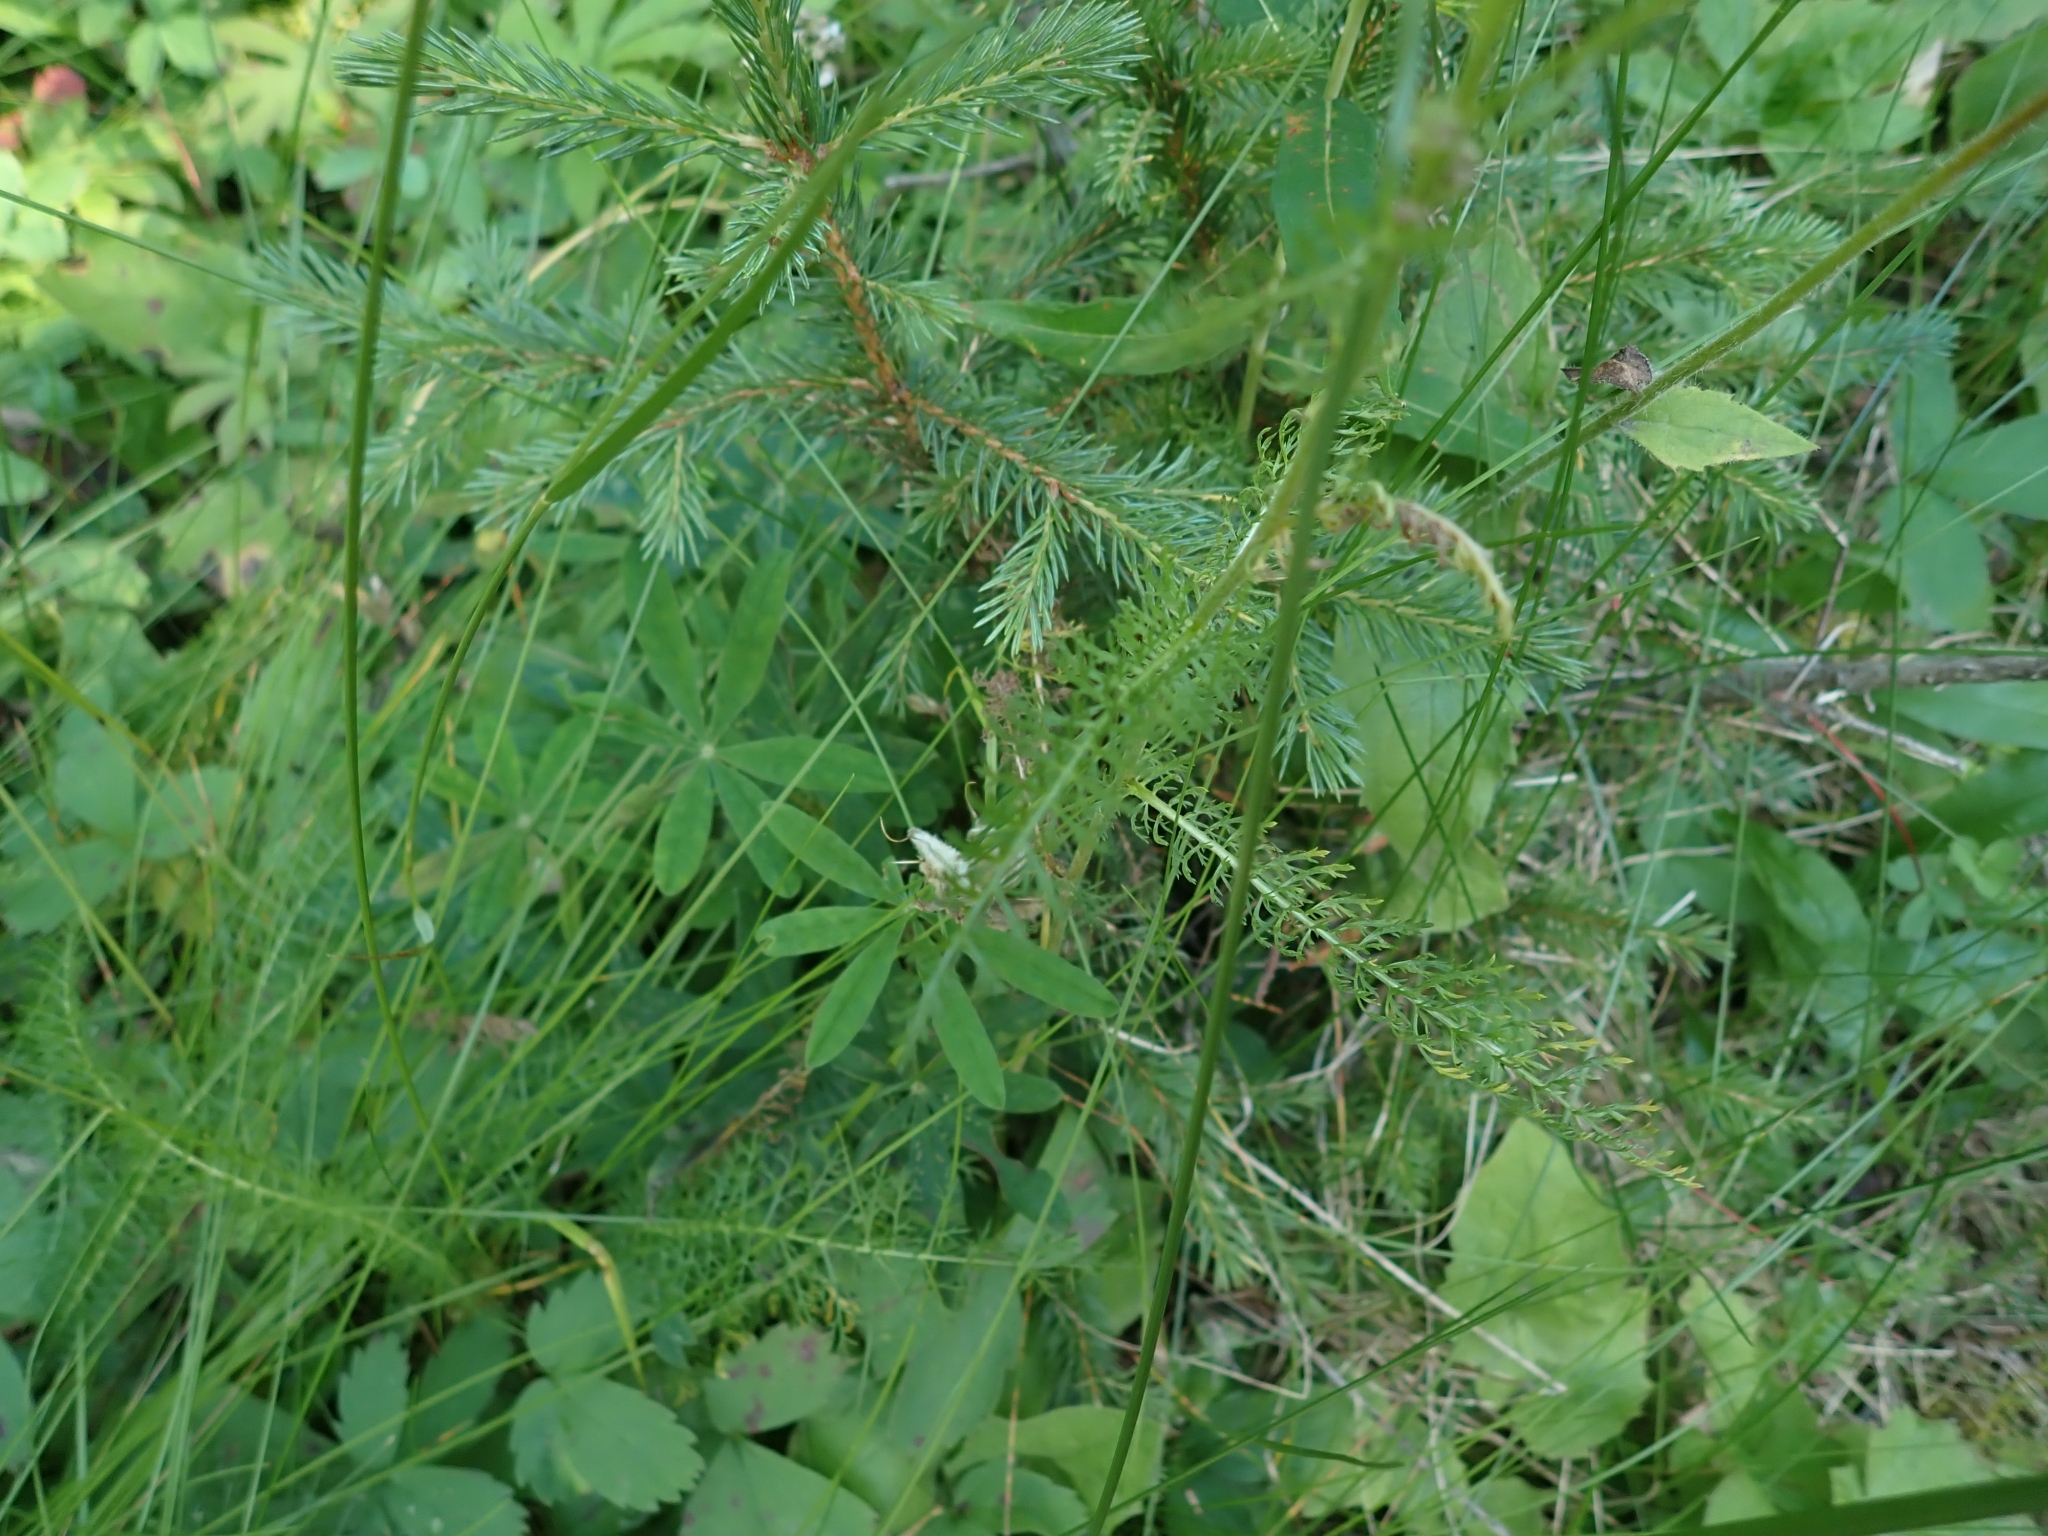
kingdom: Plantae
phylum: Tracheophyta
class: Magnoliopsida
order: Asterales
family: Asteraceae
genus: Achillea
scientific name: Achillea millefolium
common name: Yarrow
